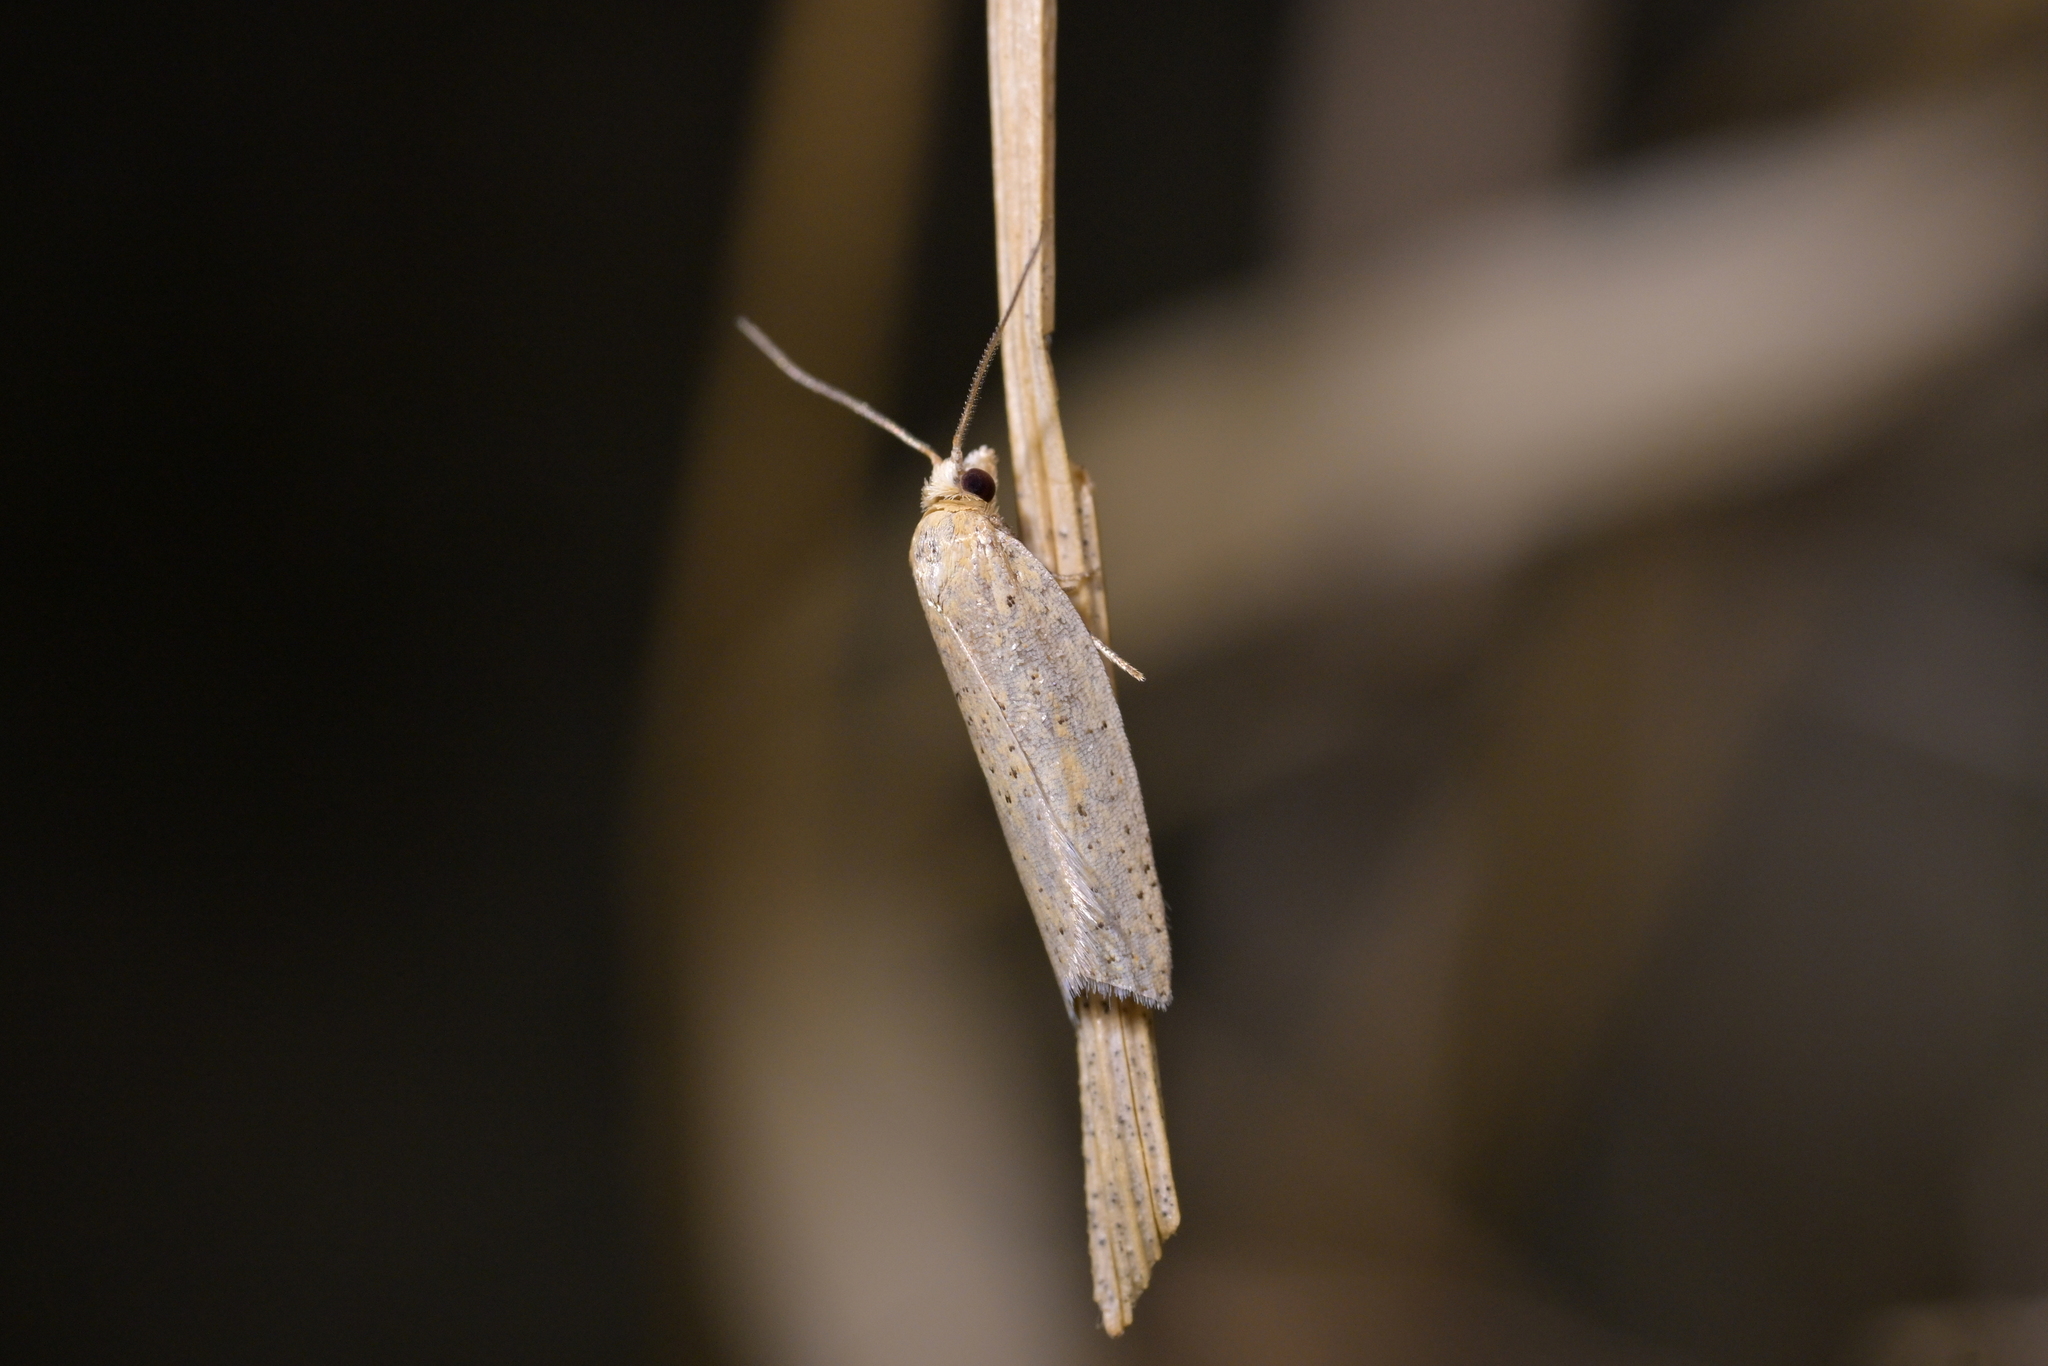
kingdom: Animalia
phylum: Arthropoda
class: Insecta
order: Lepidoptera
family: Tortricidae
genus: Clepsis
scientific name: Clepsis
